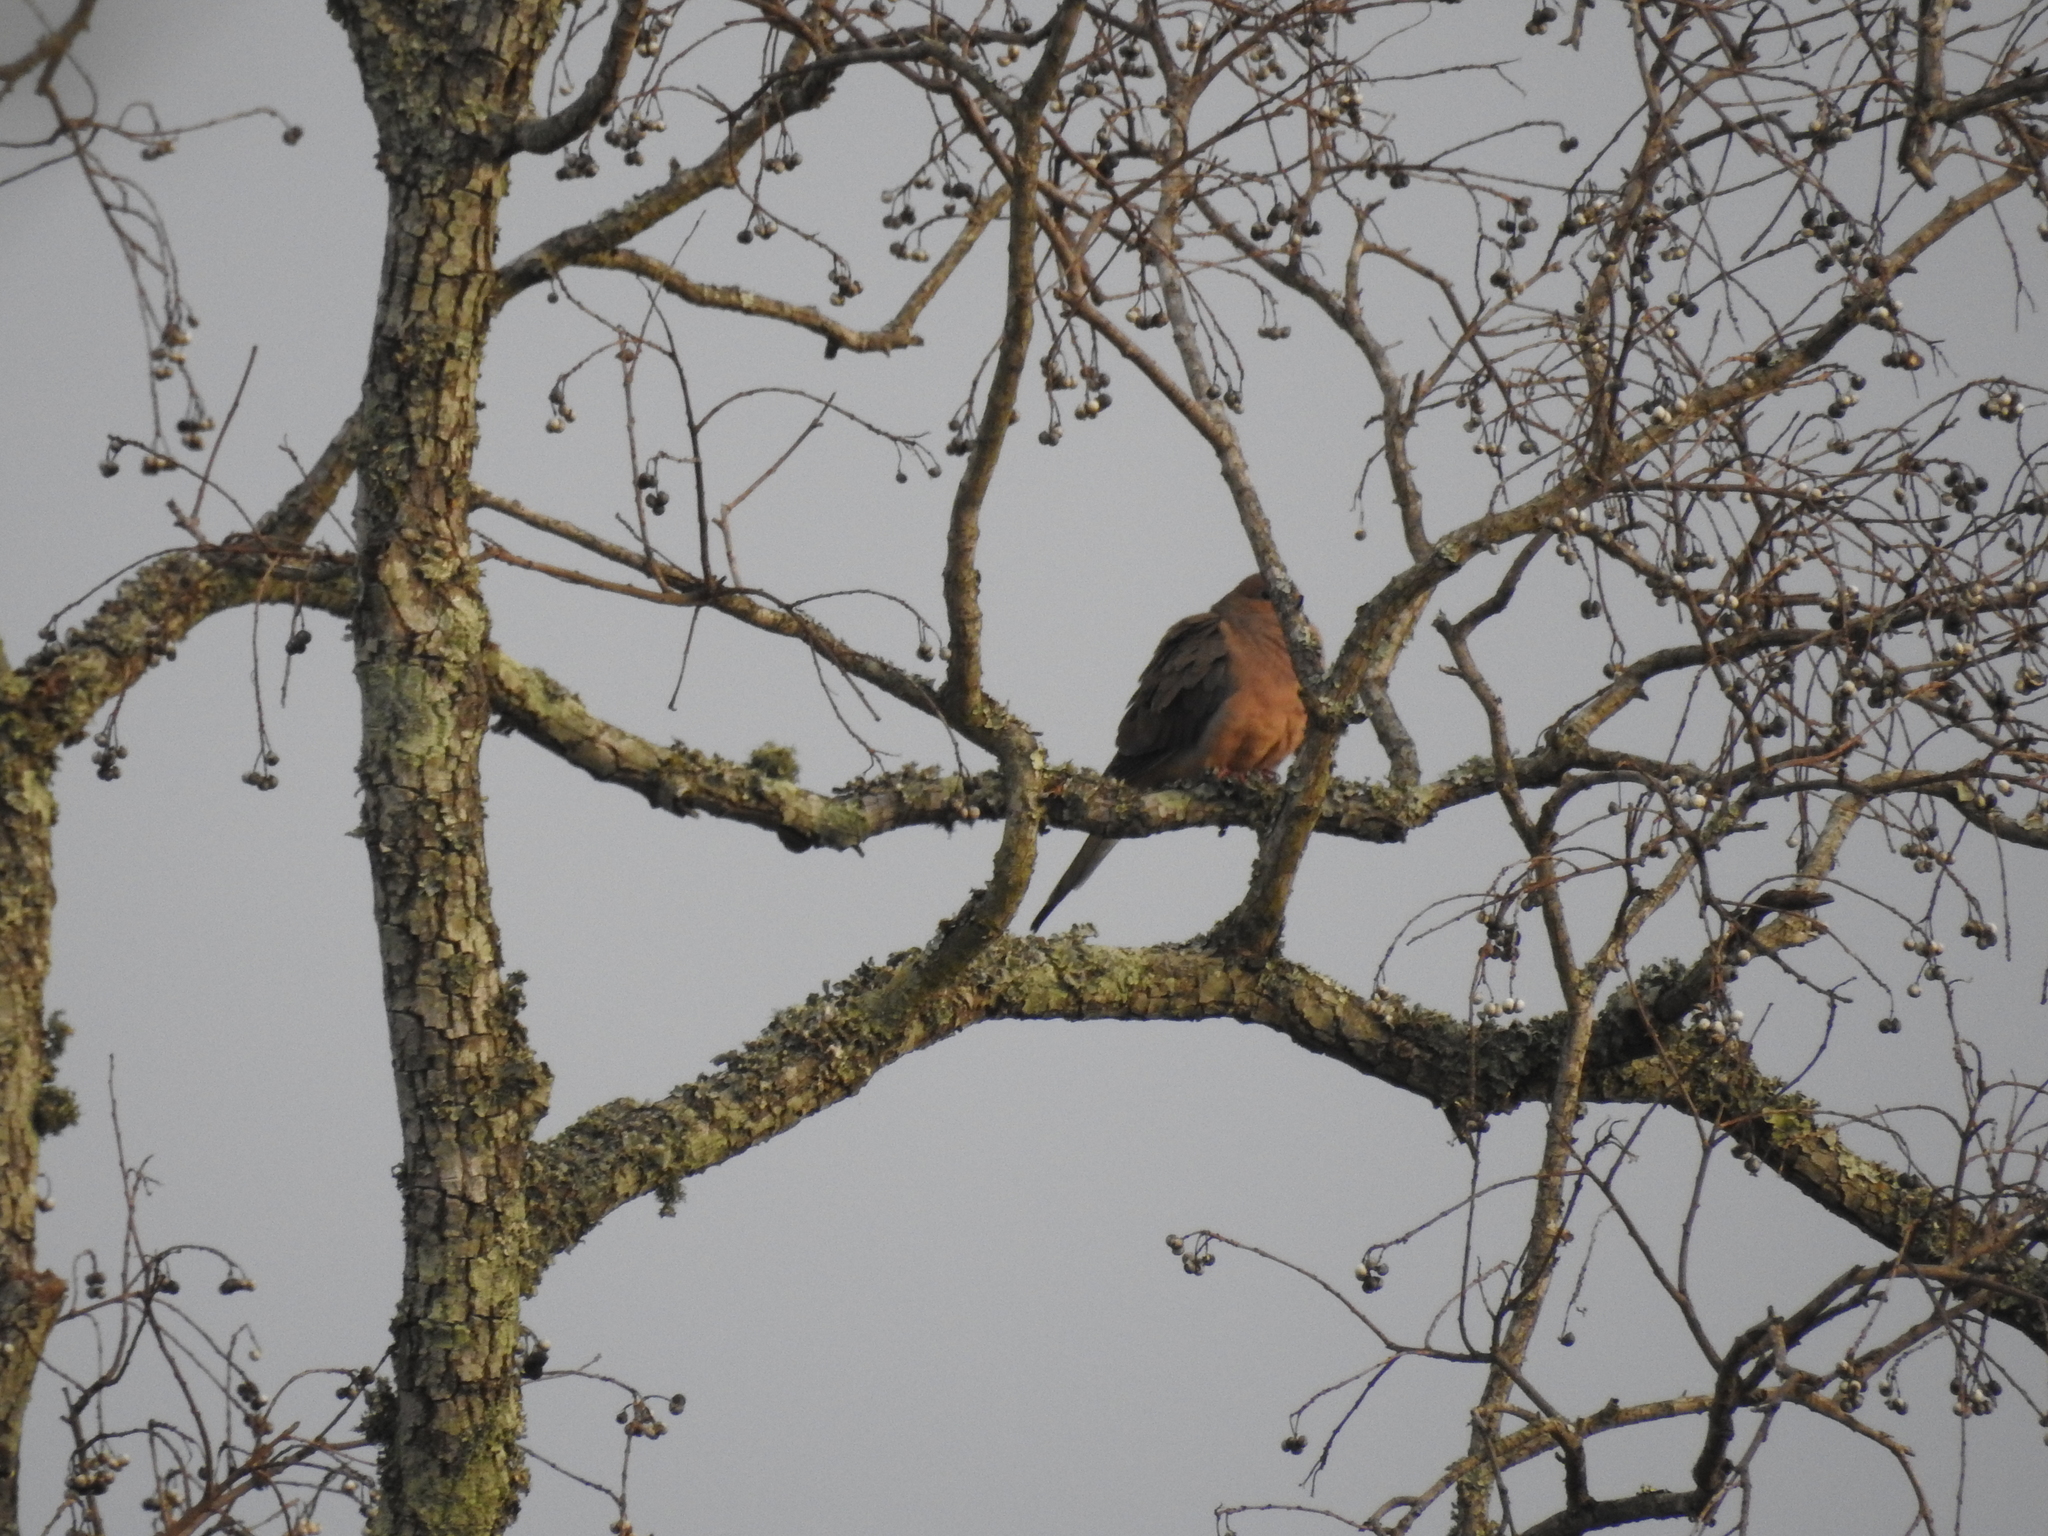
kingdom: Animalia
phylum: Chordata
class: Aves
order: Columbiformes
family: Columbidae
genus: Zenaida
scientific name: Zenaida macroura
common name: Mourning dove
